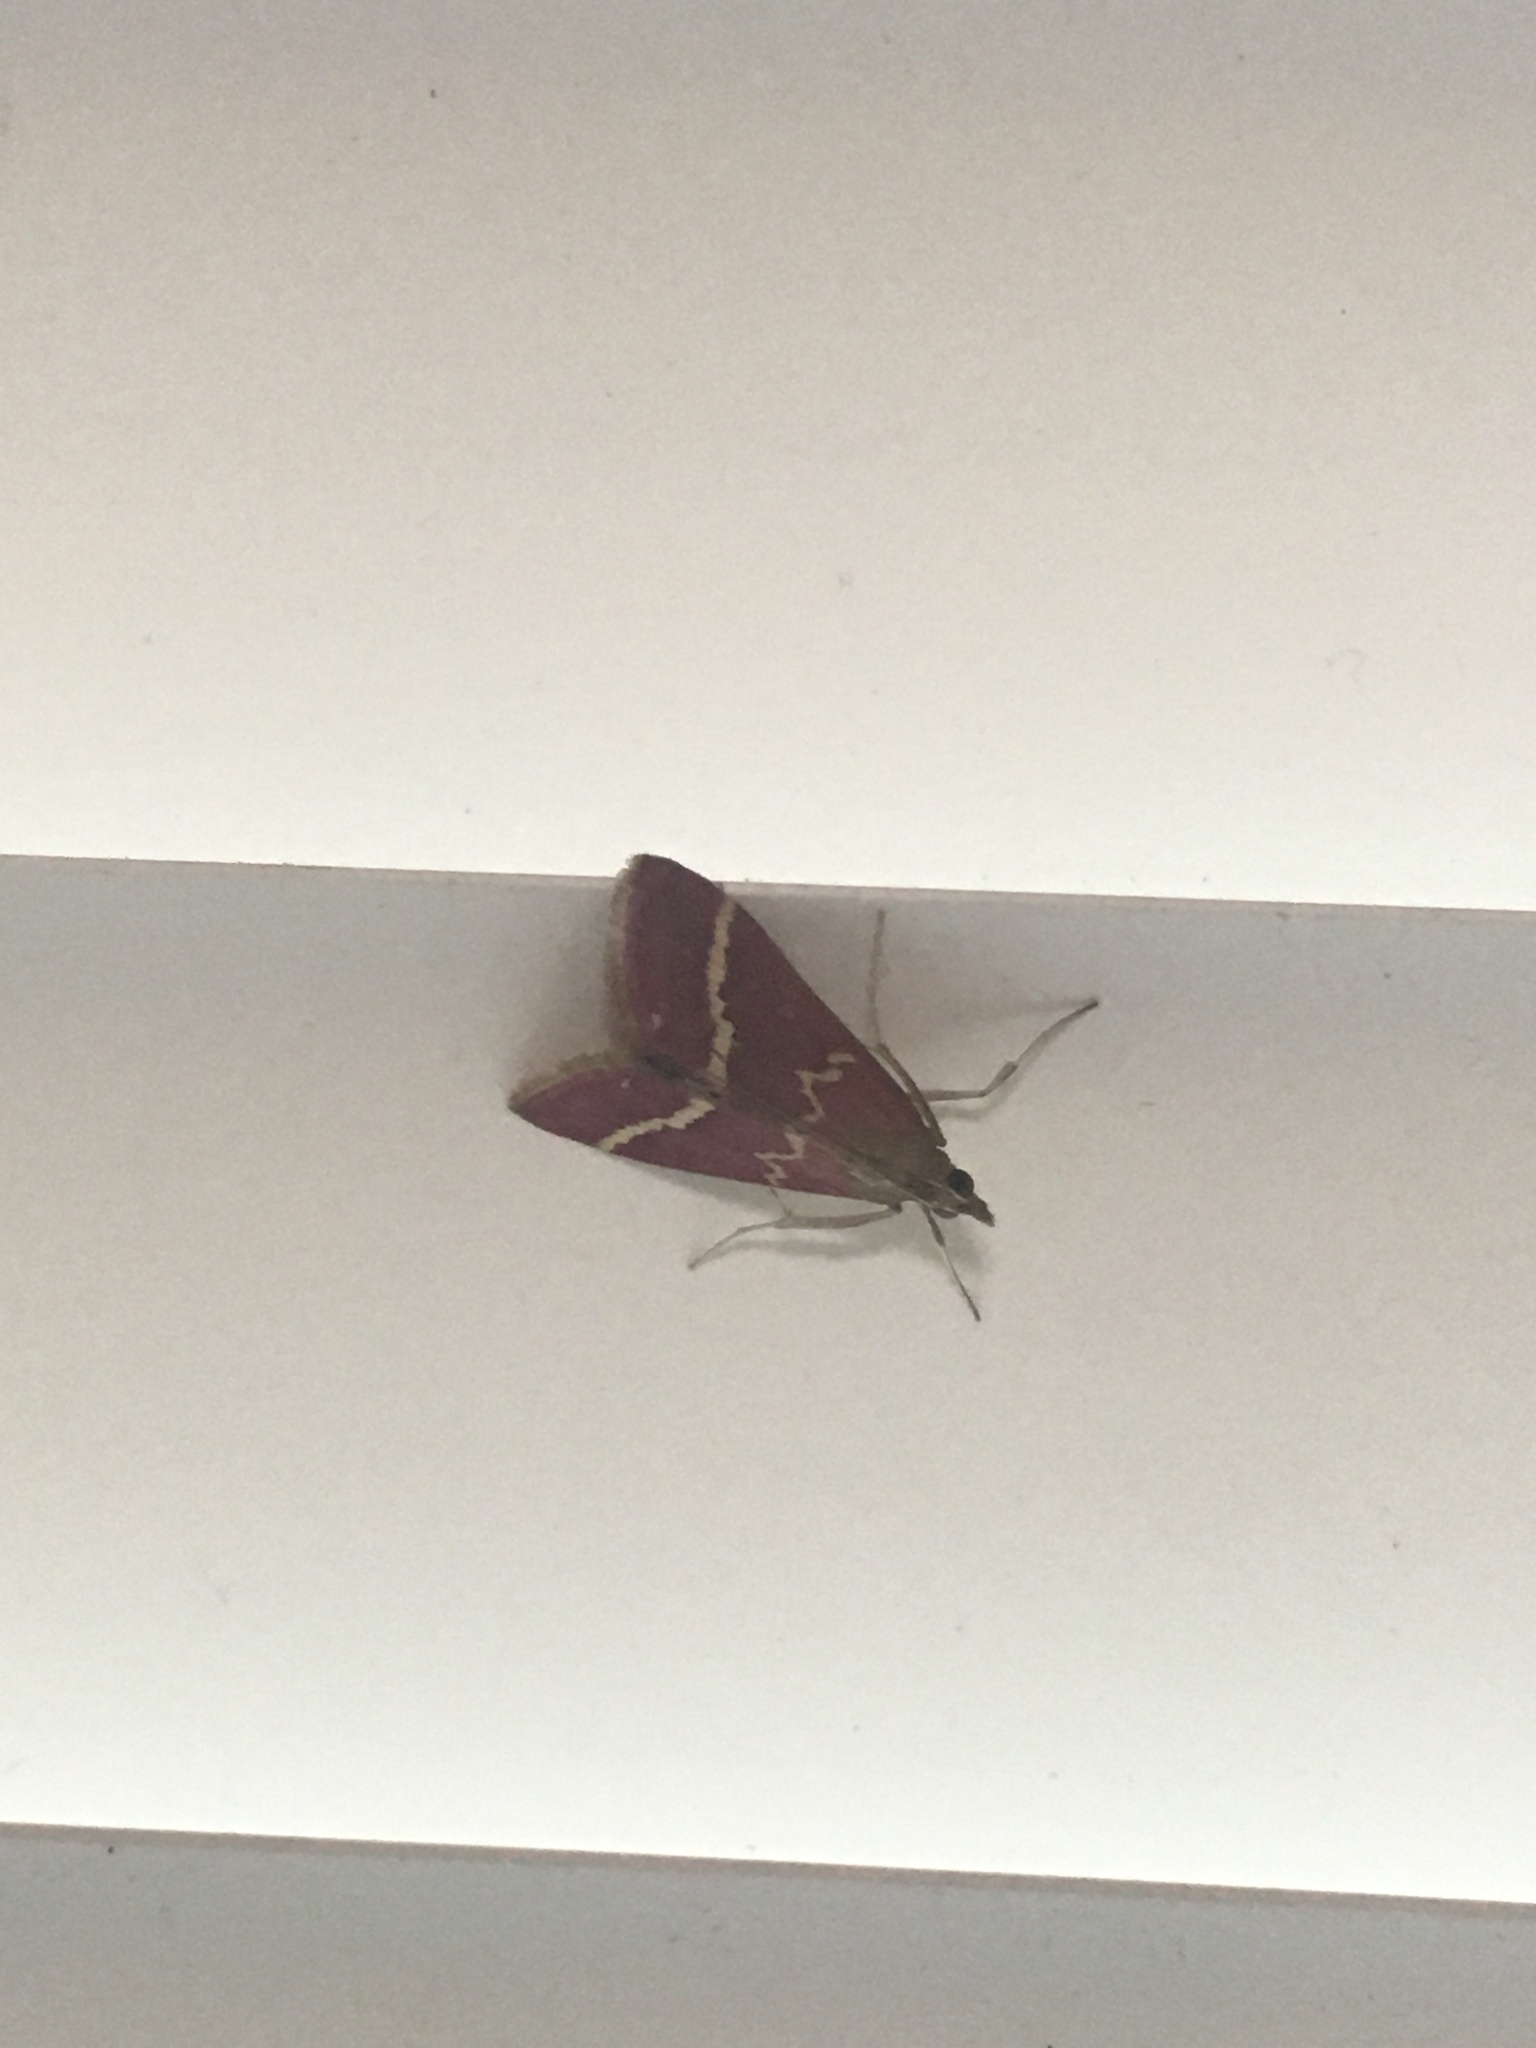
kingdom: Animalia
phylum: Arthropoda
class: Insecta
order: Lepidoptera
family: Crambidae
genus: Pyrausta
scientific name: Pyrausta volupialis
